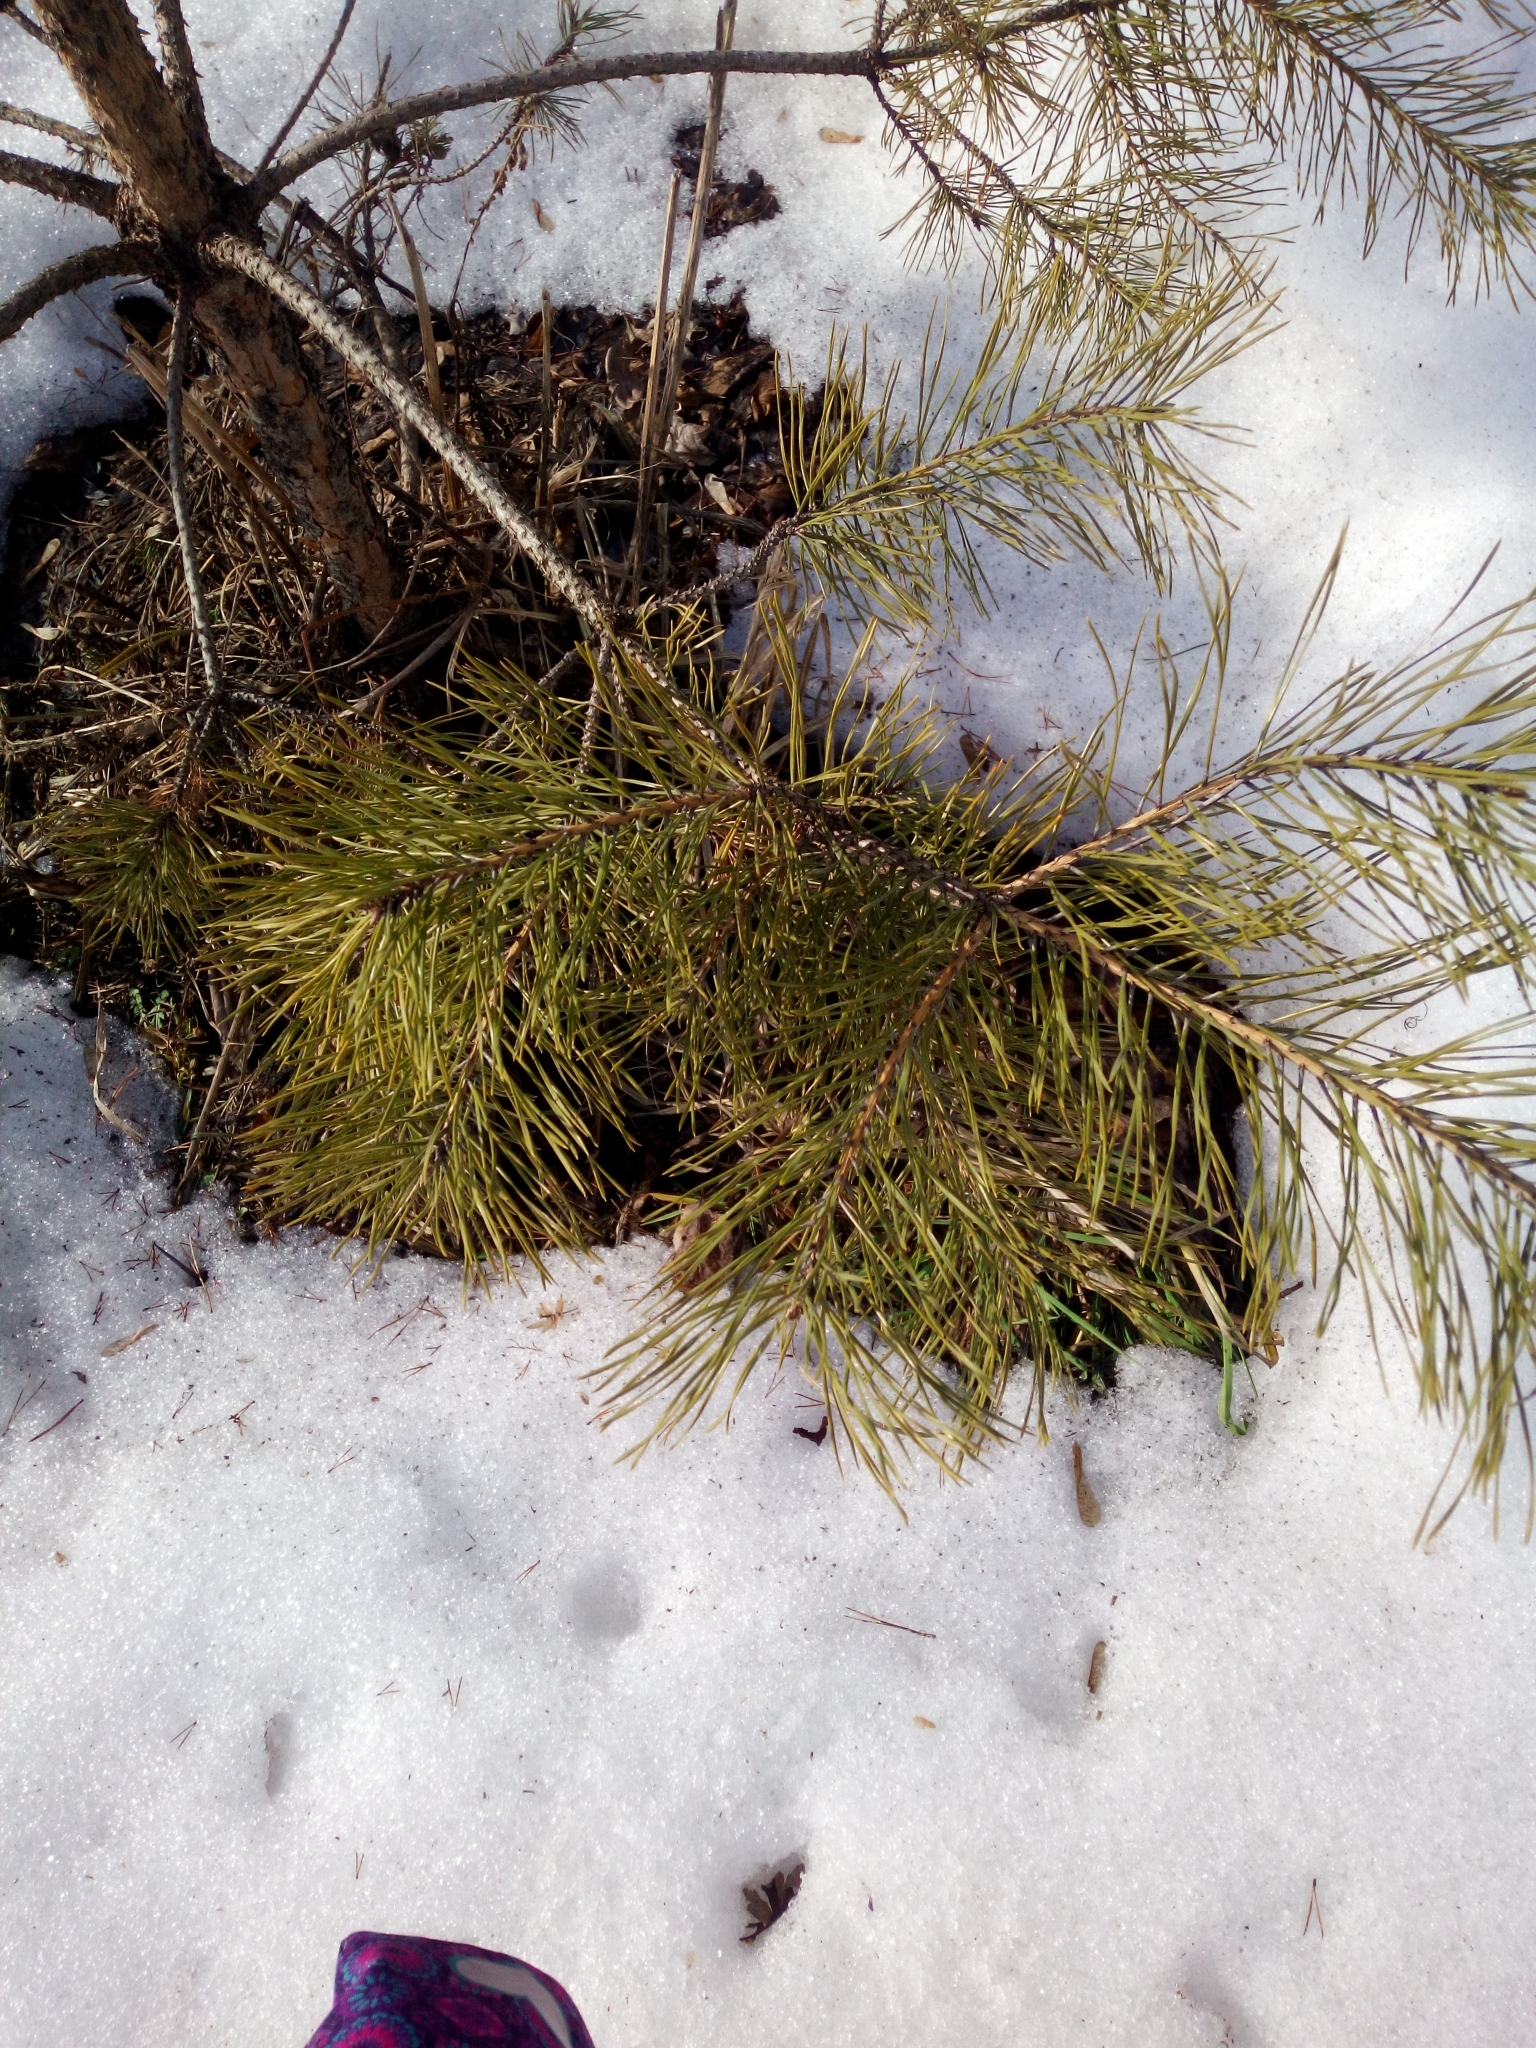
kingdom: Plantae
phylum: Tracheophyta
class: Pinopsida
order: Pinales
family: Pinaceae
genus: Pinus
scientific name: Pinus sylvestris
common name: Scots pine
